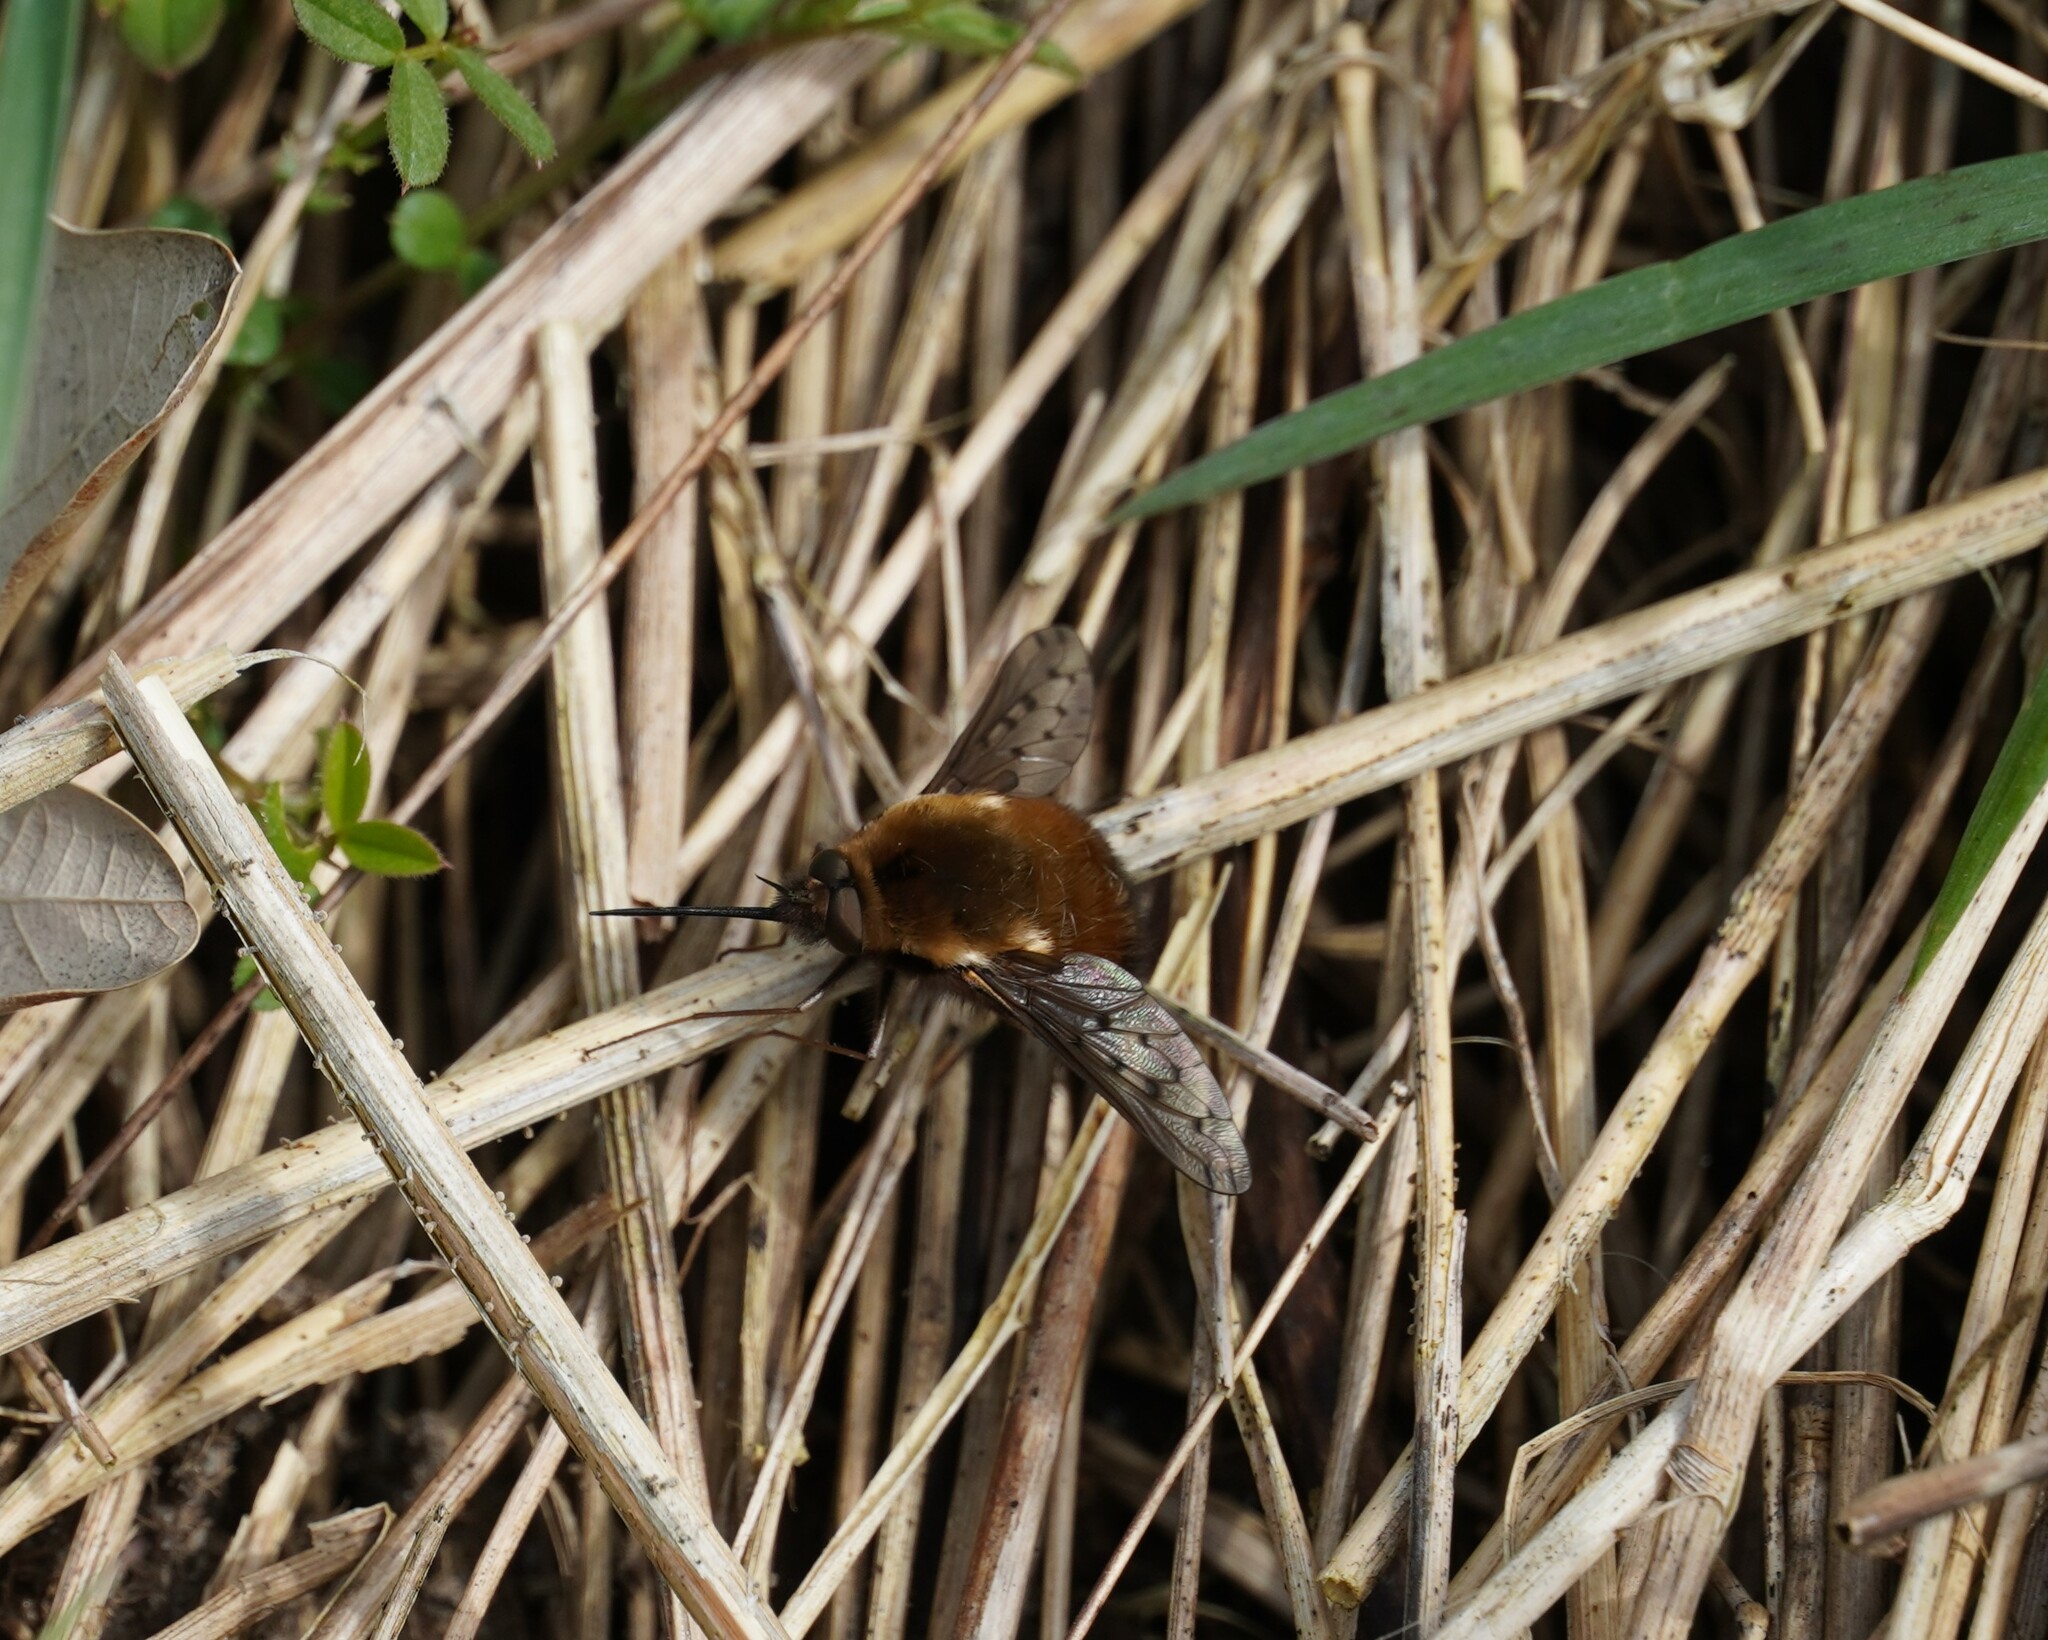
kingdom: Animalia
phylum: Arthropoda
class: Insecta
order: Diptera
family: Bombyliidae
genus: Bombylius
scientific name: Bombylius discolor
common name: Dotted bee-fly
